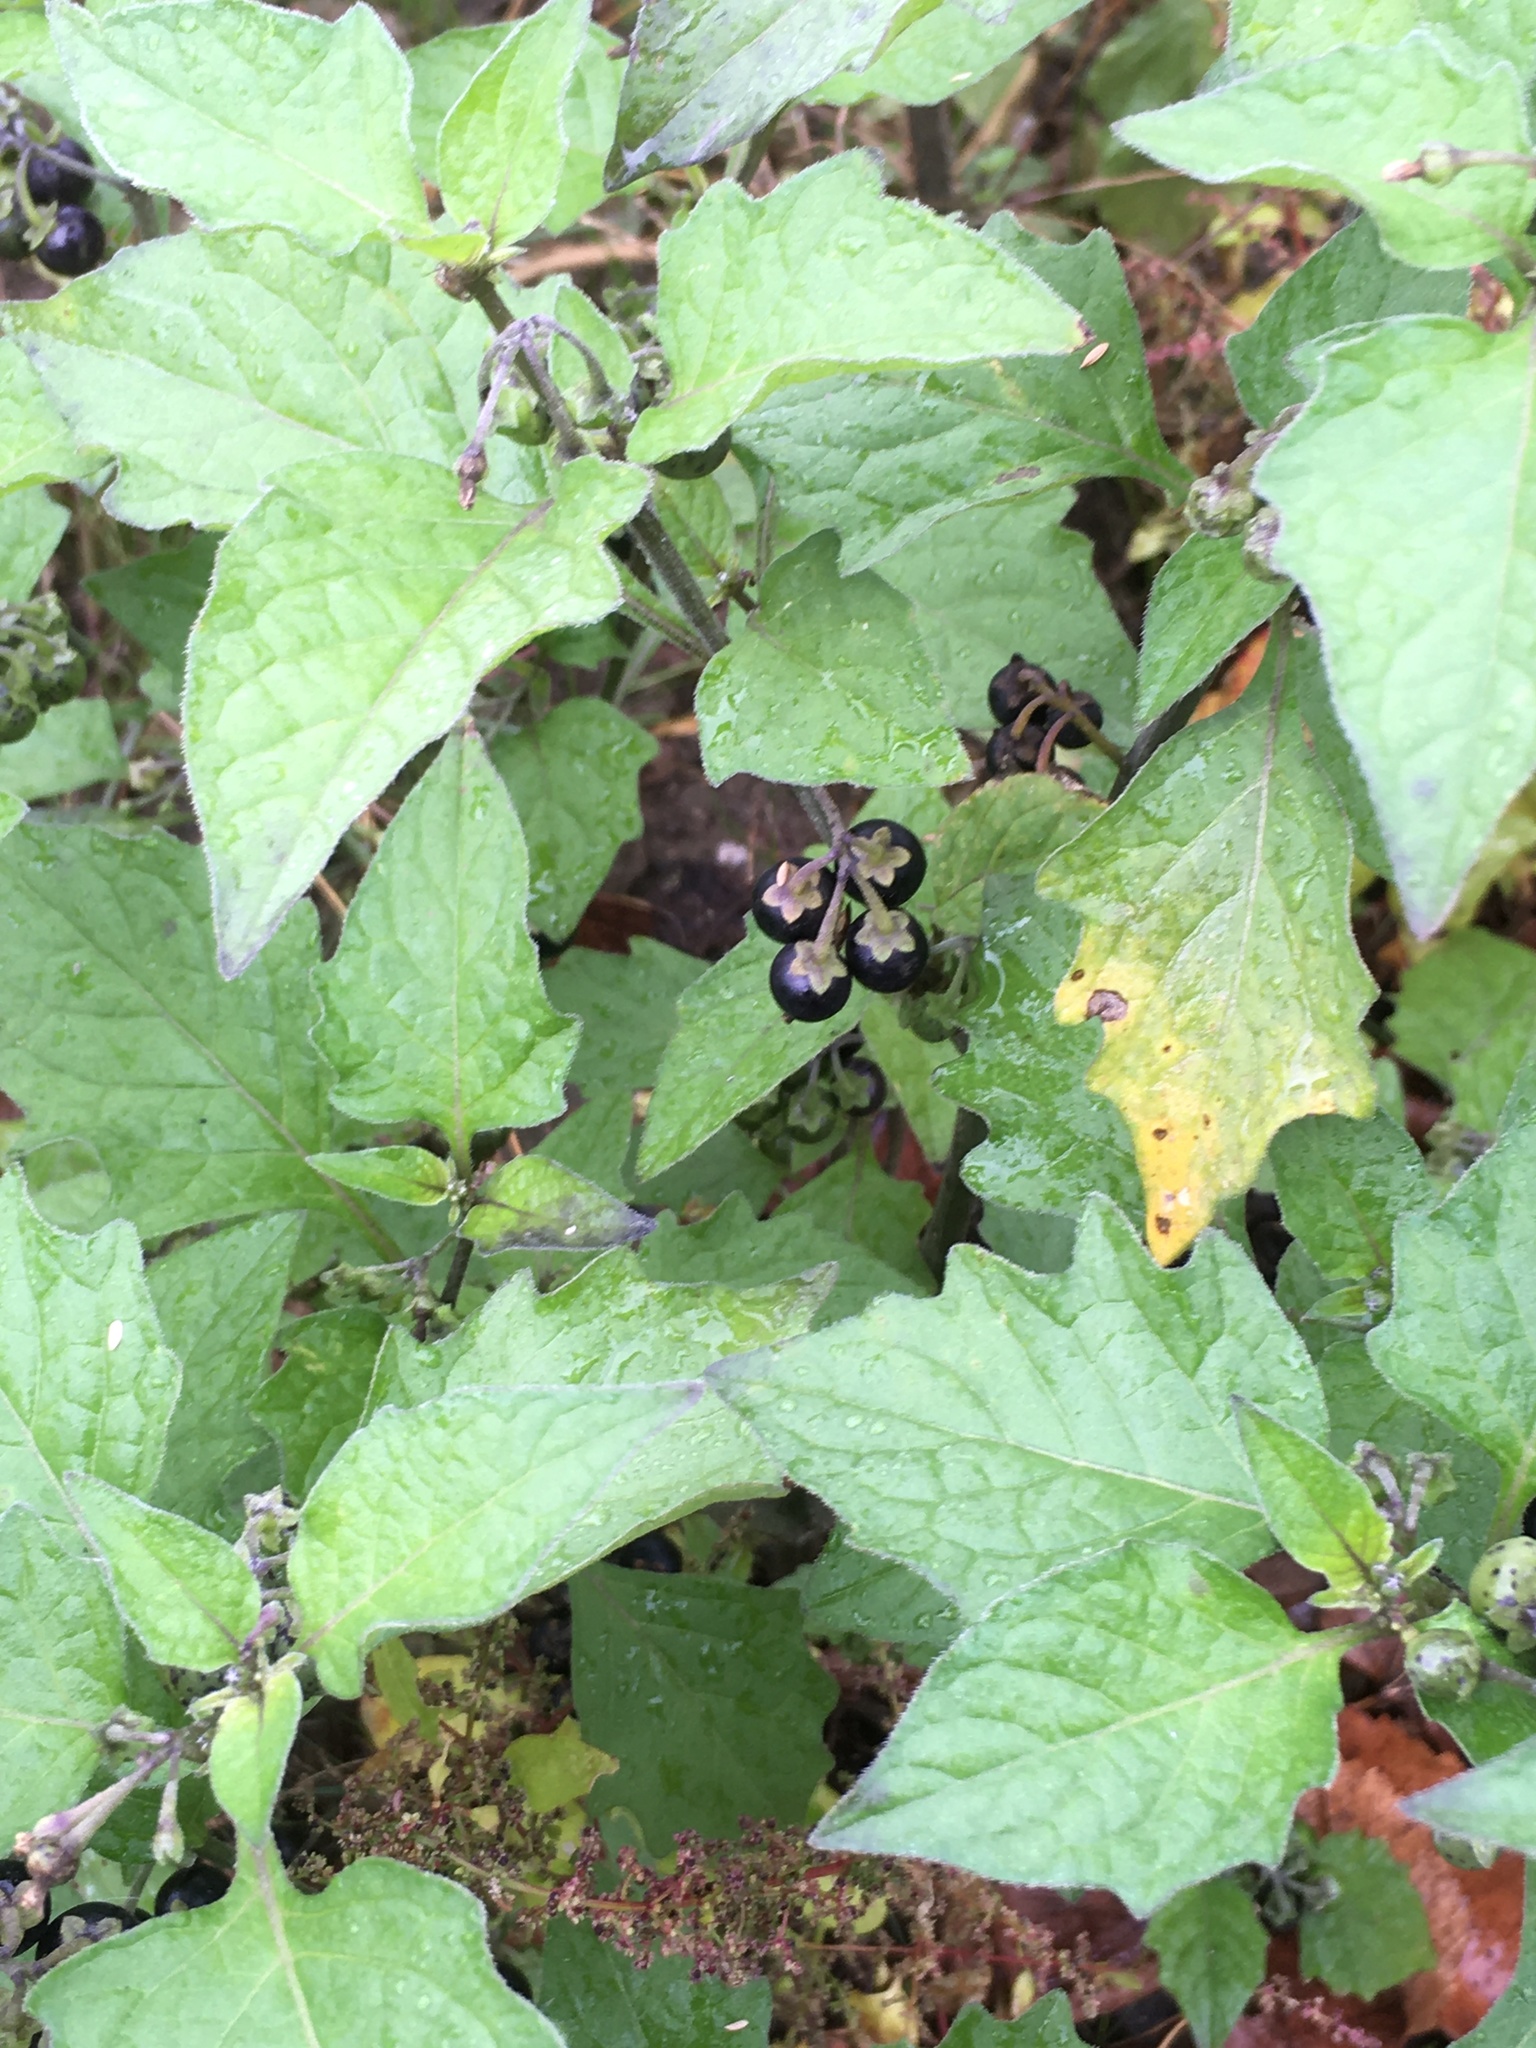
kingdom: Plantae
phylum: Tracheophyta
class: Magnoliopsida
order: Solanales
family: Solanaceae
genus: Solanum
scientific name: Solanum nigrum
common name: Black nightshade
